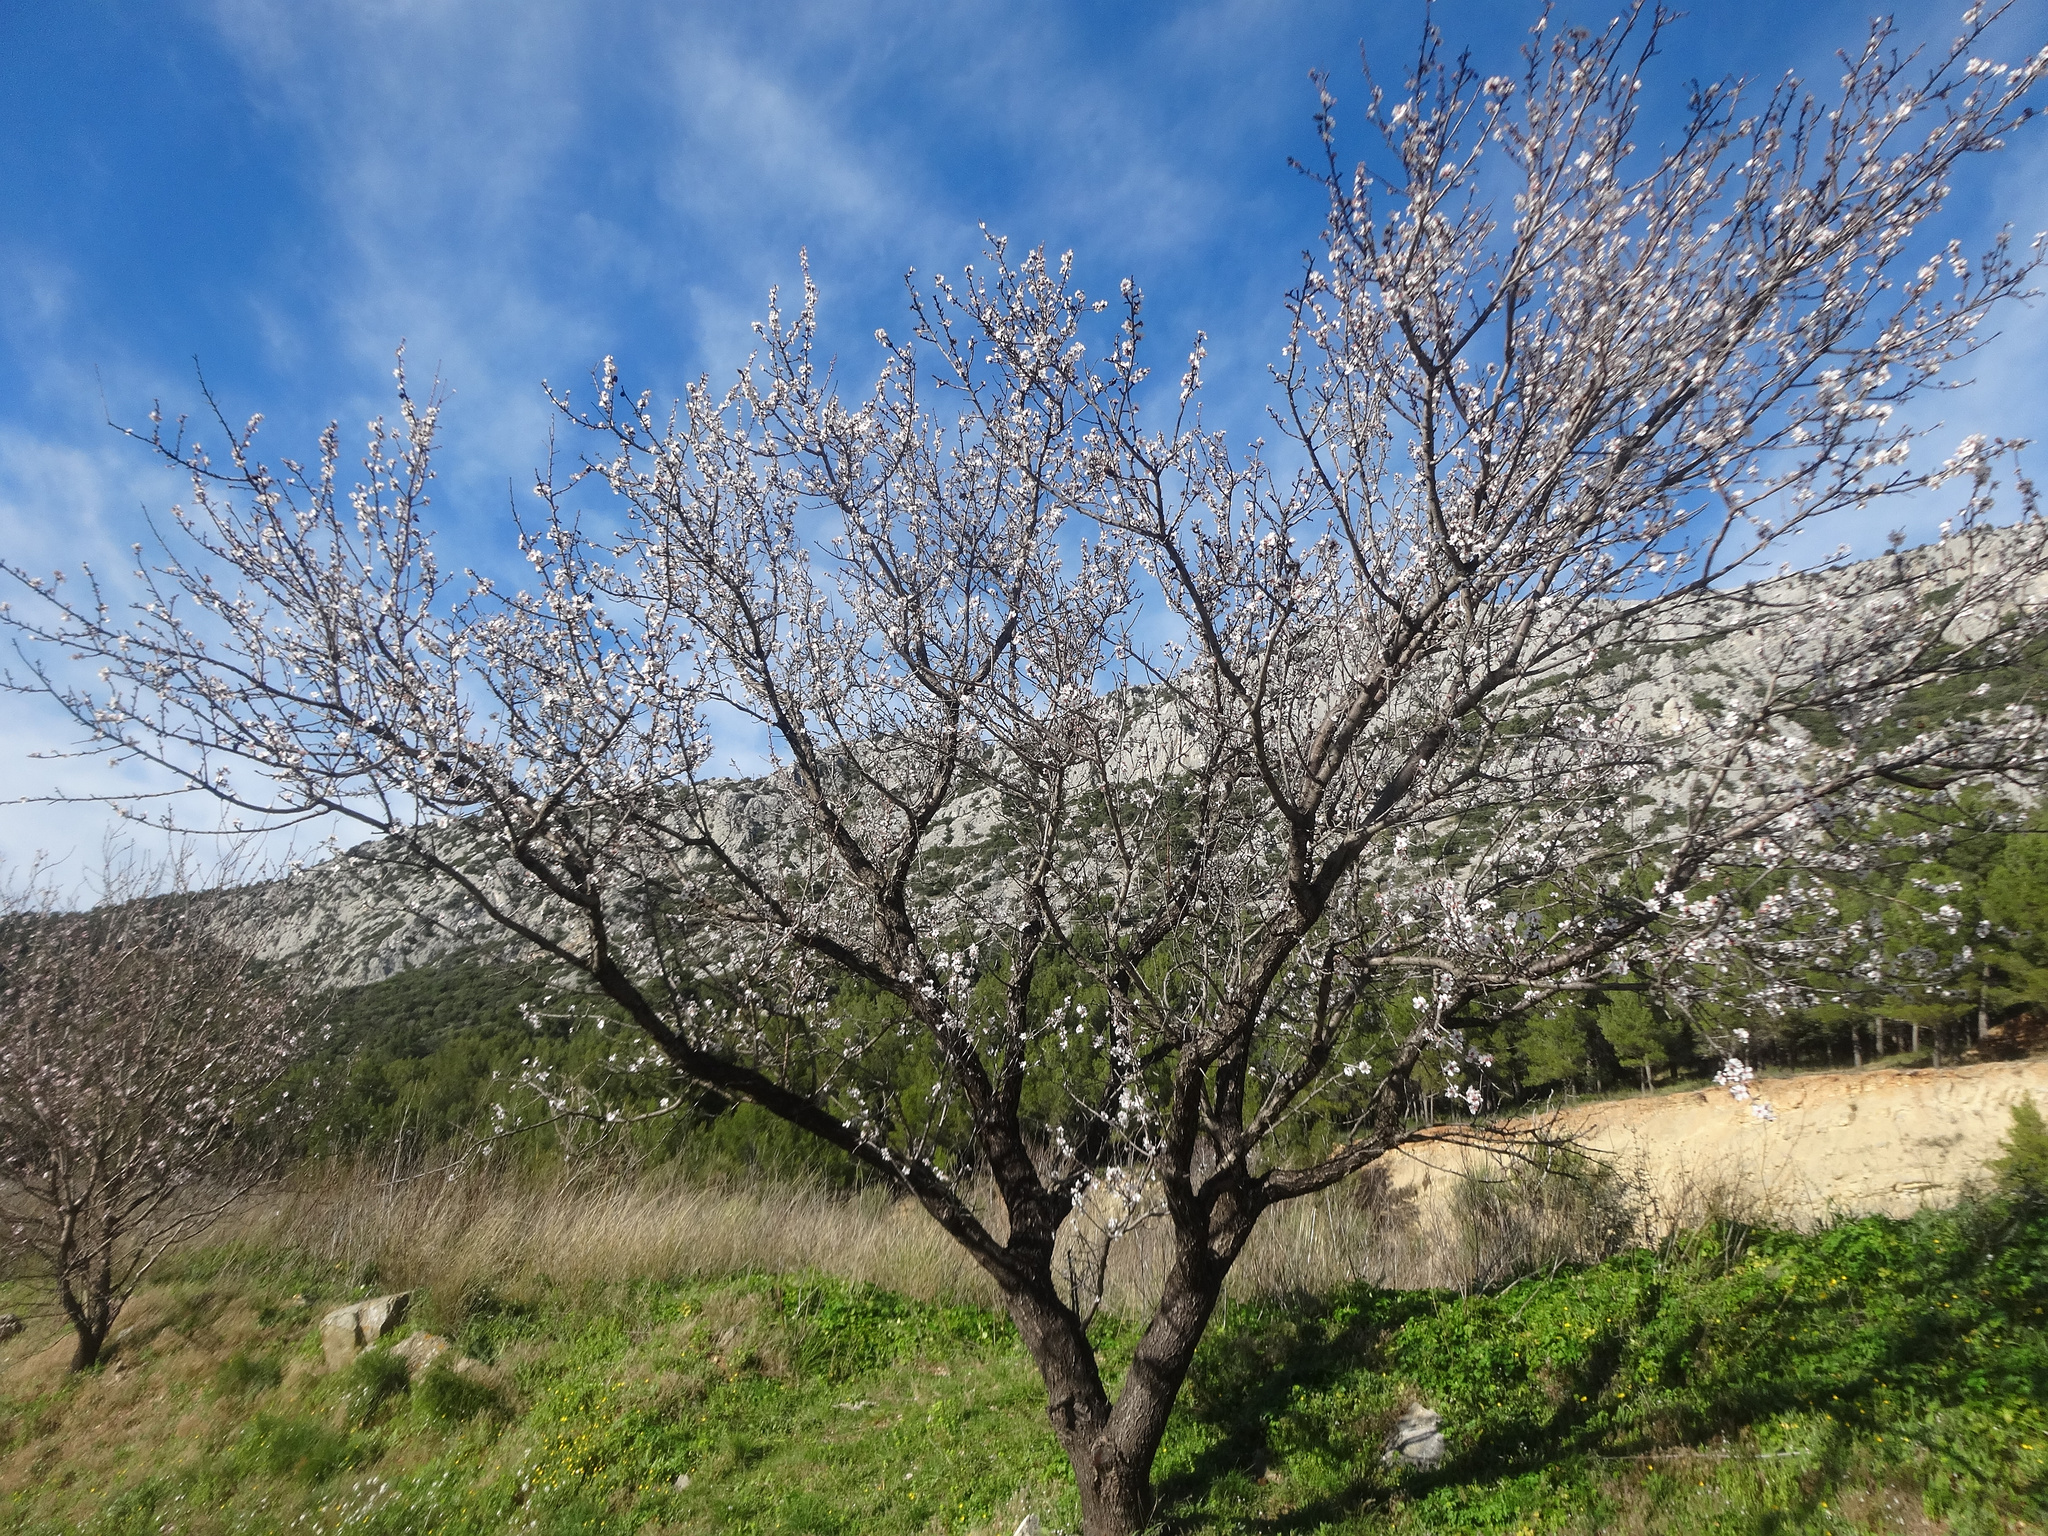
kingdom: Plantae
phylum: Tracheophyta
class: Magnoliopsida
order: Rosales
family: Rosaceae
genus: Prunus
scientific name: Prunus amygdalus
